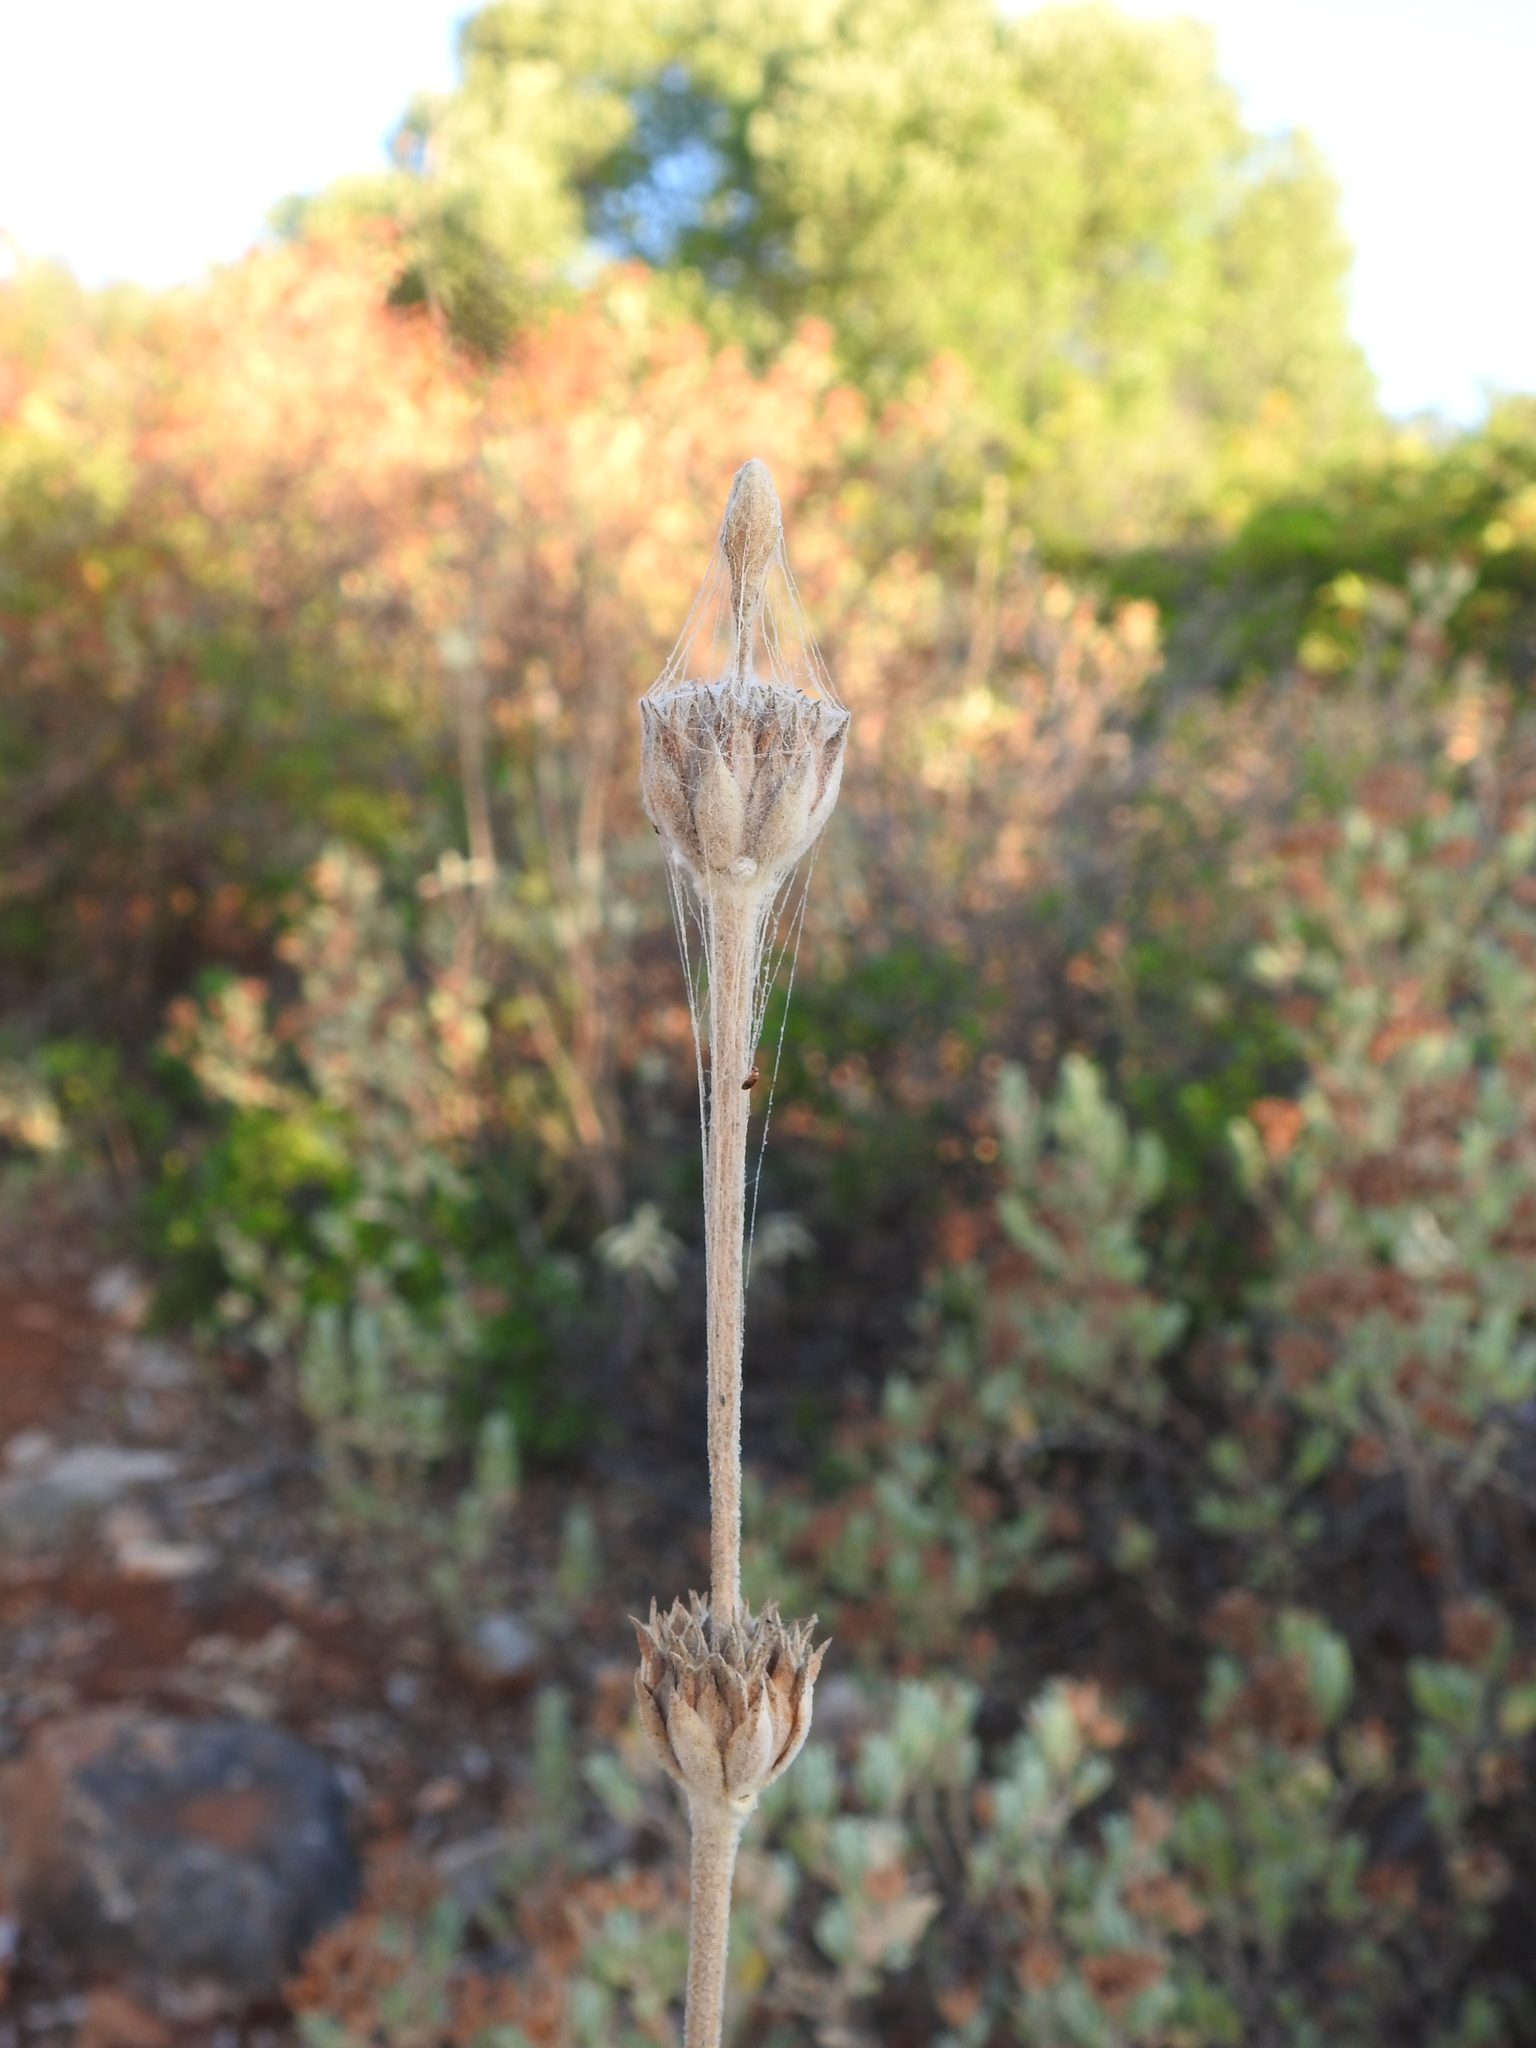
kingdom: Plantae
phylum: Tracheophyta
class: Magnoliopsida
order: Lamiales
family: Lamiaceae
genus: Phlomis
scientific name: Phlomis purpurea
